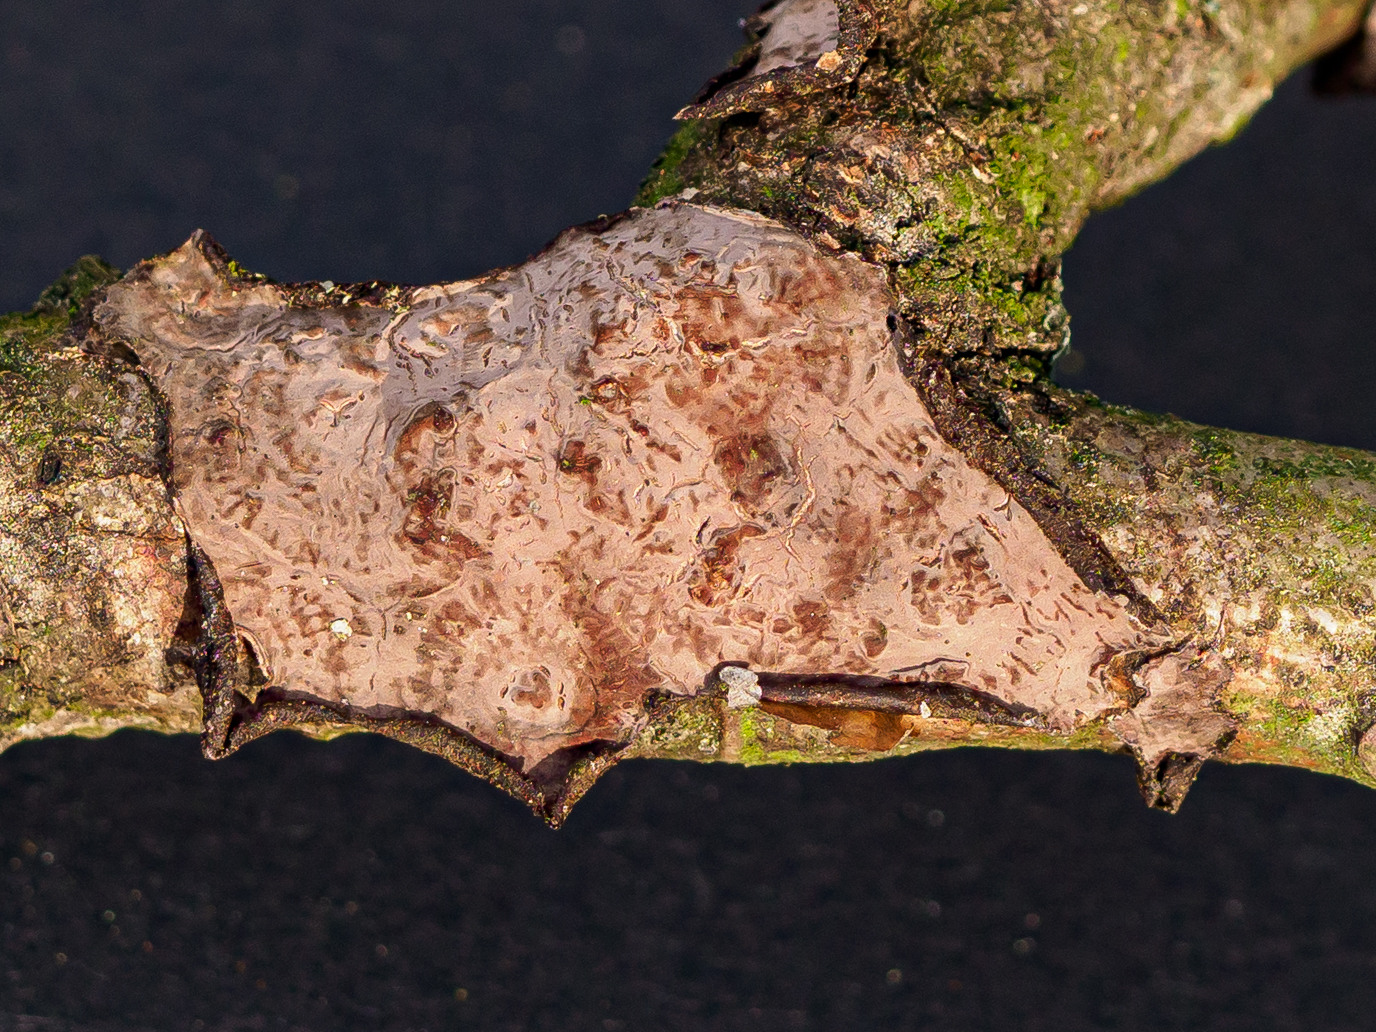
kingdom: Fungi
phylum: Basidiomycota
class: Agaricomycetes
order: Russulales
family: Peniophoraceae
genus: Peniophora
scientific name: Peniophora quercina
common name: Oak crust
